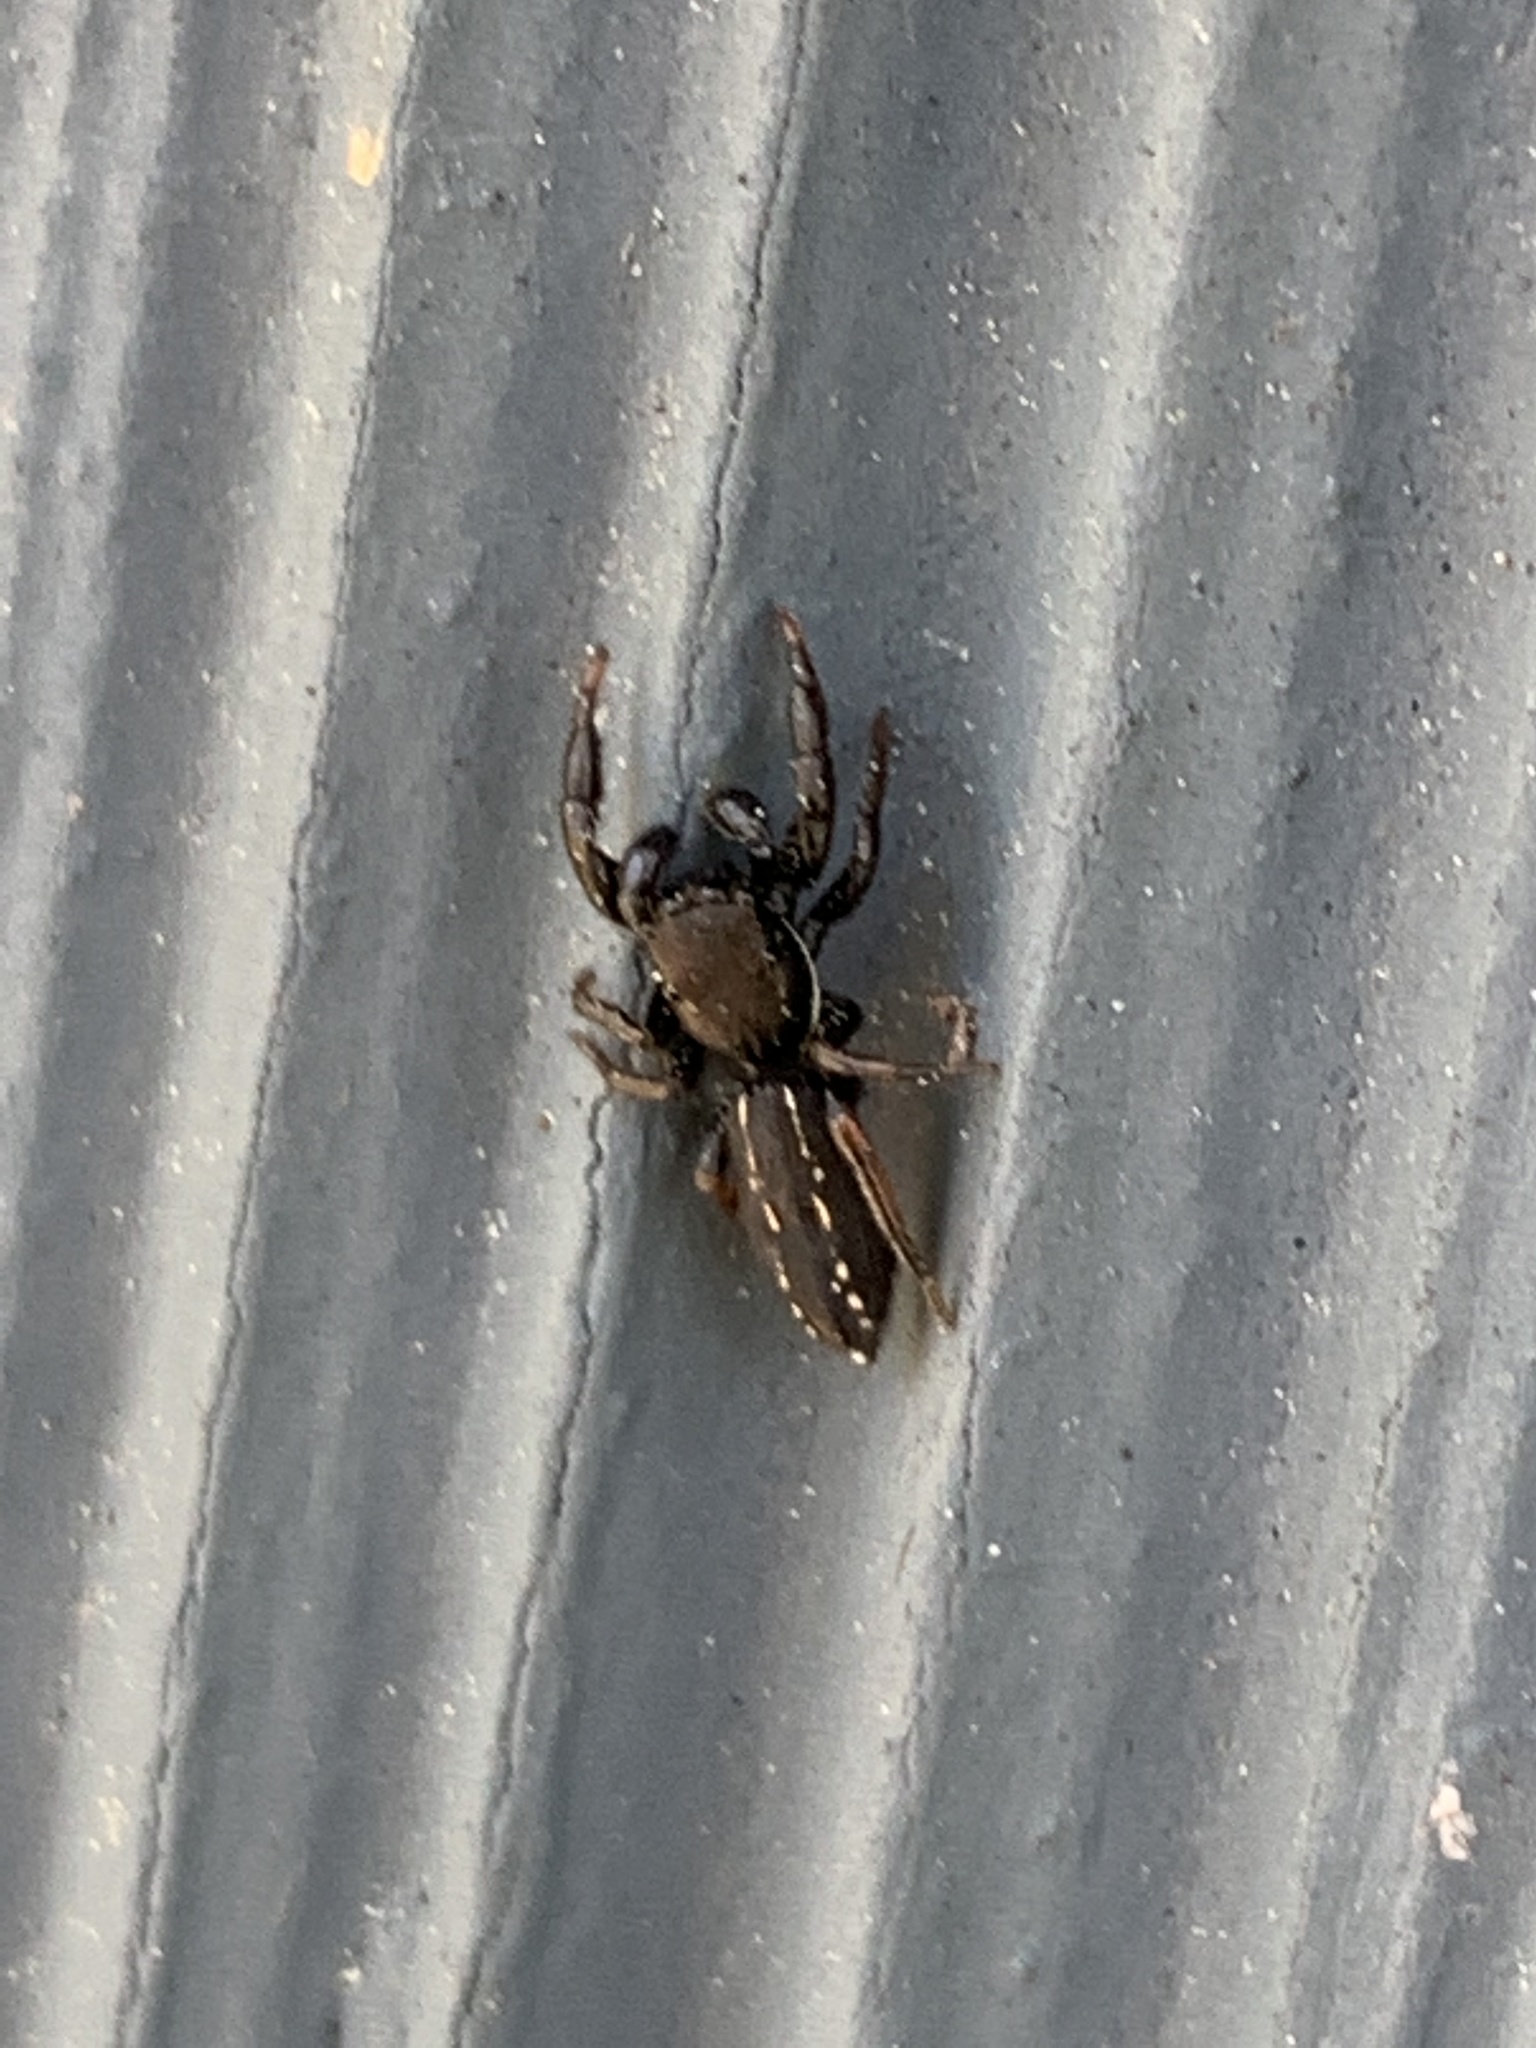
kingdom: Animalia
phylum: Arthropoda
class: Arachnida
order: Araneae
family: Salticidae
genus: Metacyrba
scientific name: Metacyrba taeniola
